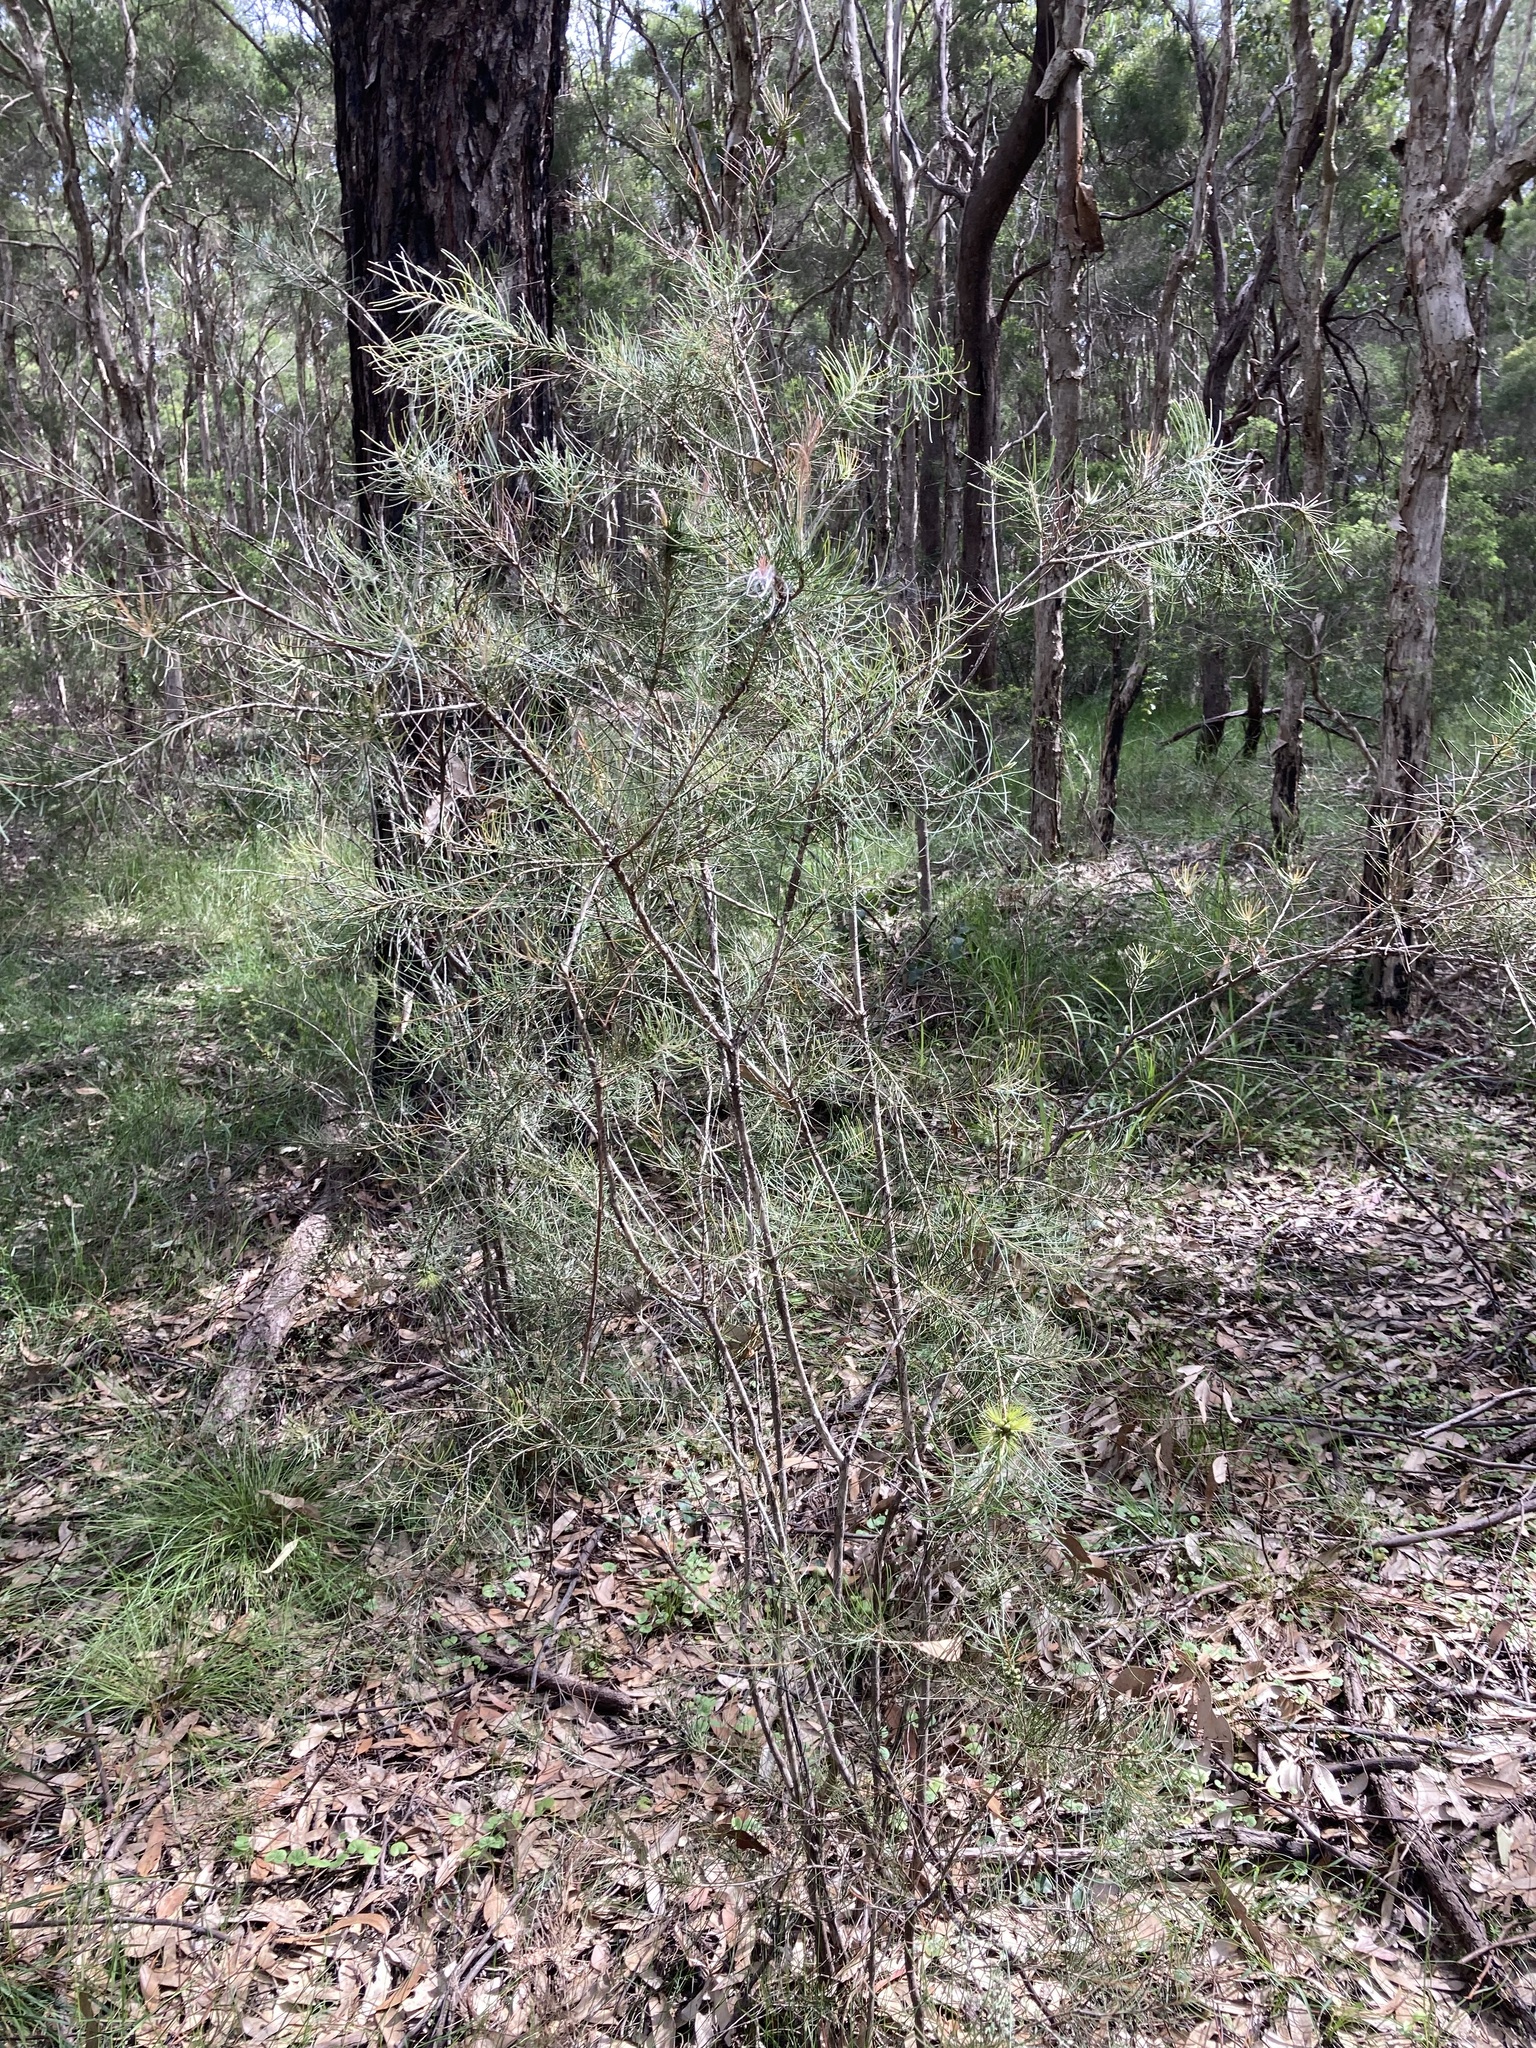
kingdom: Plantae
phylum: Tracheophyta
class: Magnoliopsida
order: Myrtales
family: Myrtaceae
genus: Callistemon
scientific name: Callistemon pinifolius
